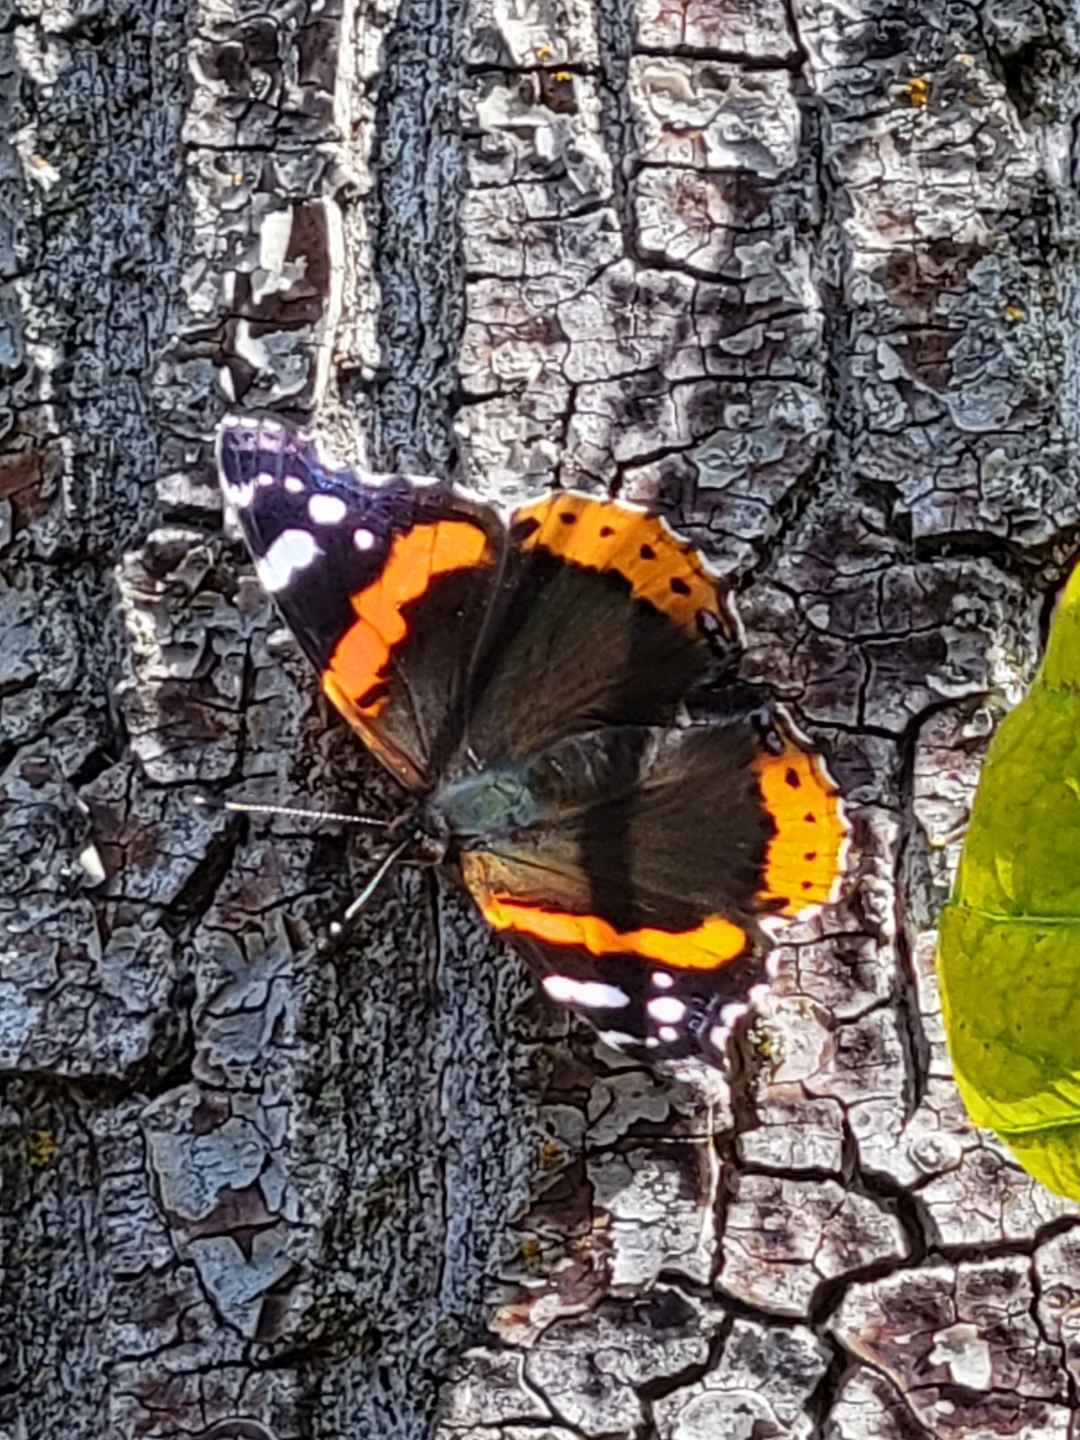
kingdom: Animalia
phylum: Arthropoda
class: Insecta
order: Lepidoptera
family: Nymphalidae
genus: Vanessa
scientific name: Vanessa atalanta
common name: Red admiral
